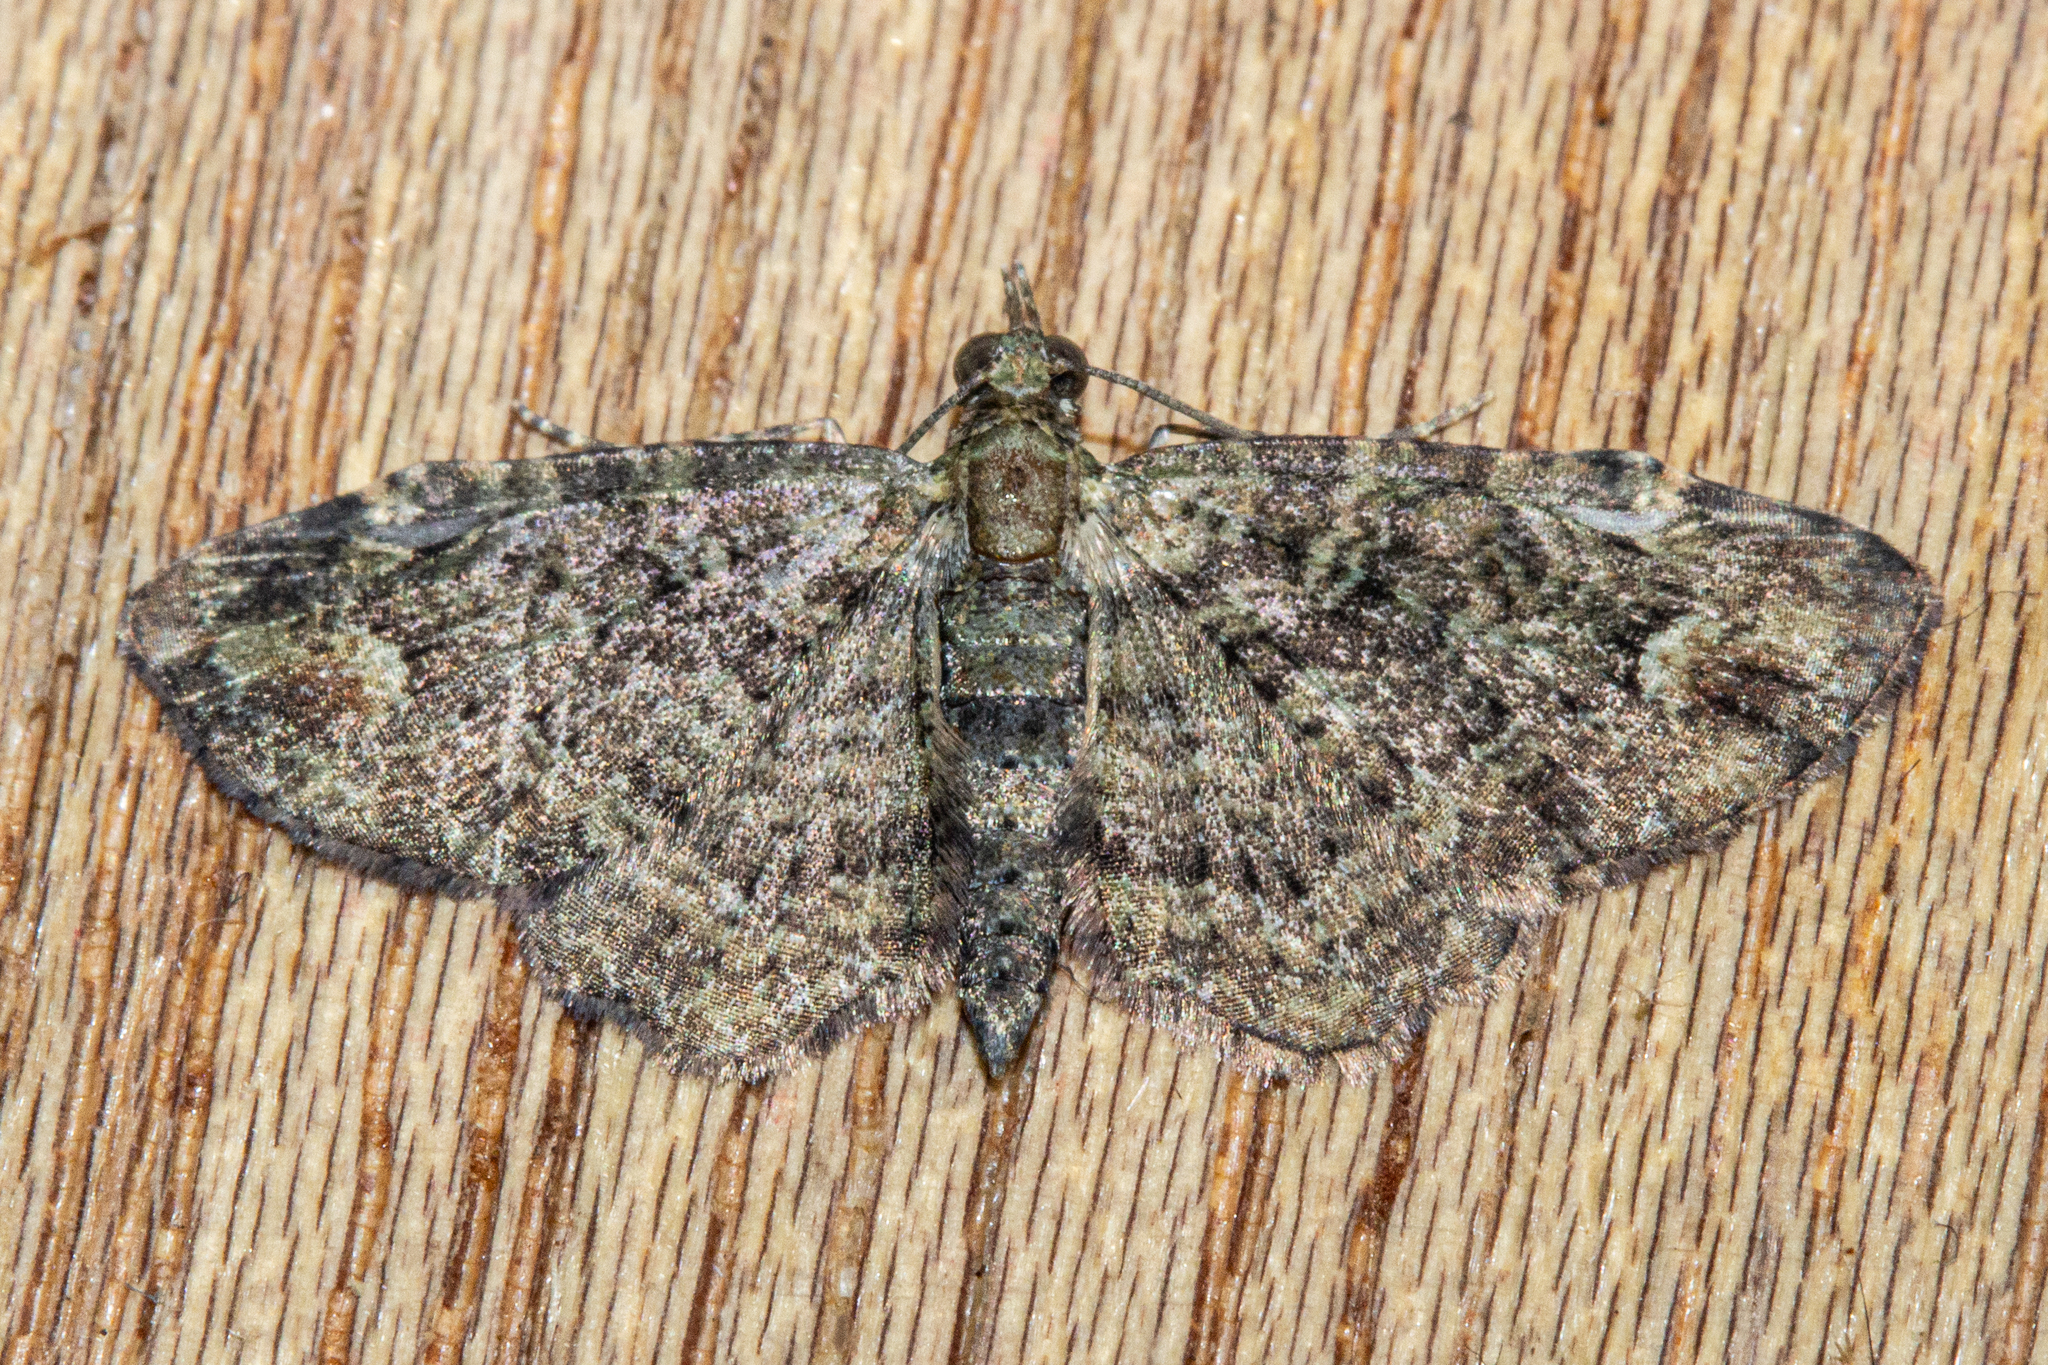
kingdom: Animalia
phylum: Arthropoda
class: Insecta
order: Lepidoptera
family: Geometridae
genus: Pasiphilodes
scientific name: Pasiphilodes testulata
